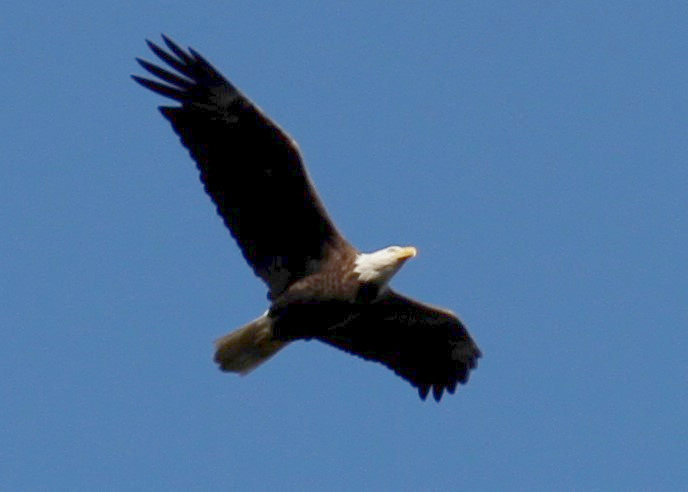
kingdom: Animalia
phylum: Chordata
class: Aves
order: Accipitriformes
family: Accipitridae
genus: Haliaeetus
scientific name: Haliaeetus leucocephalus
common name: Bald eagle
